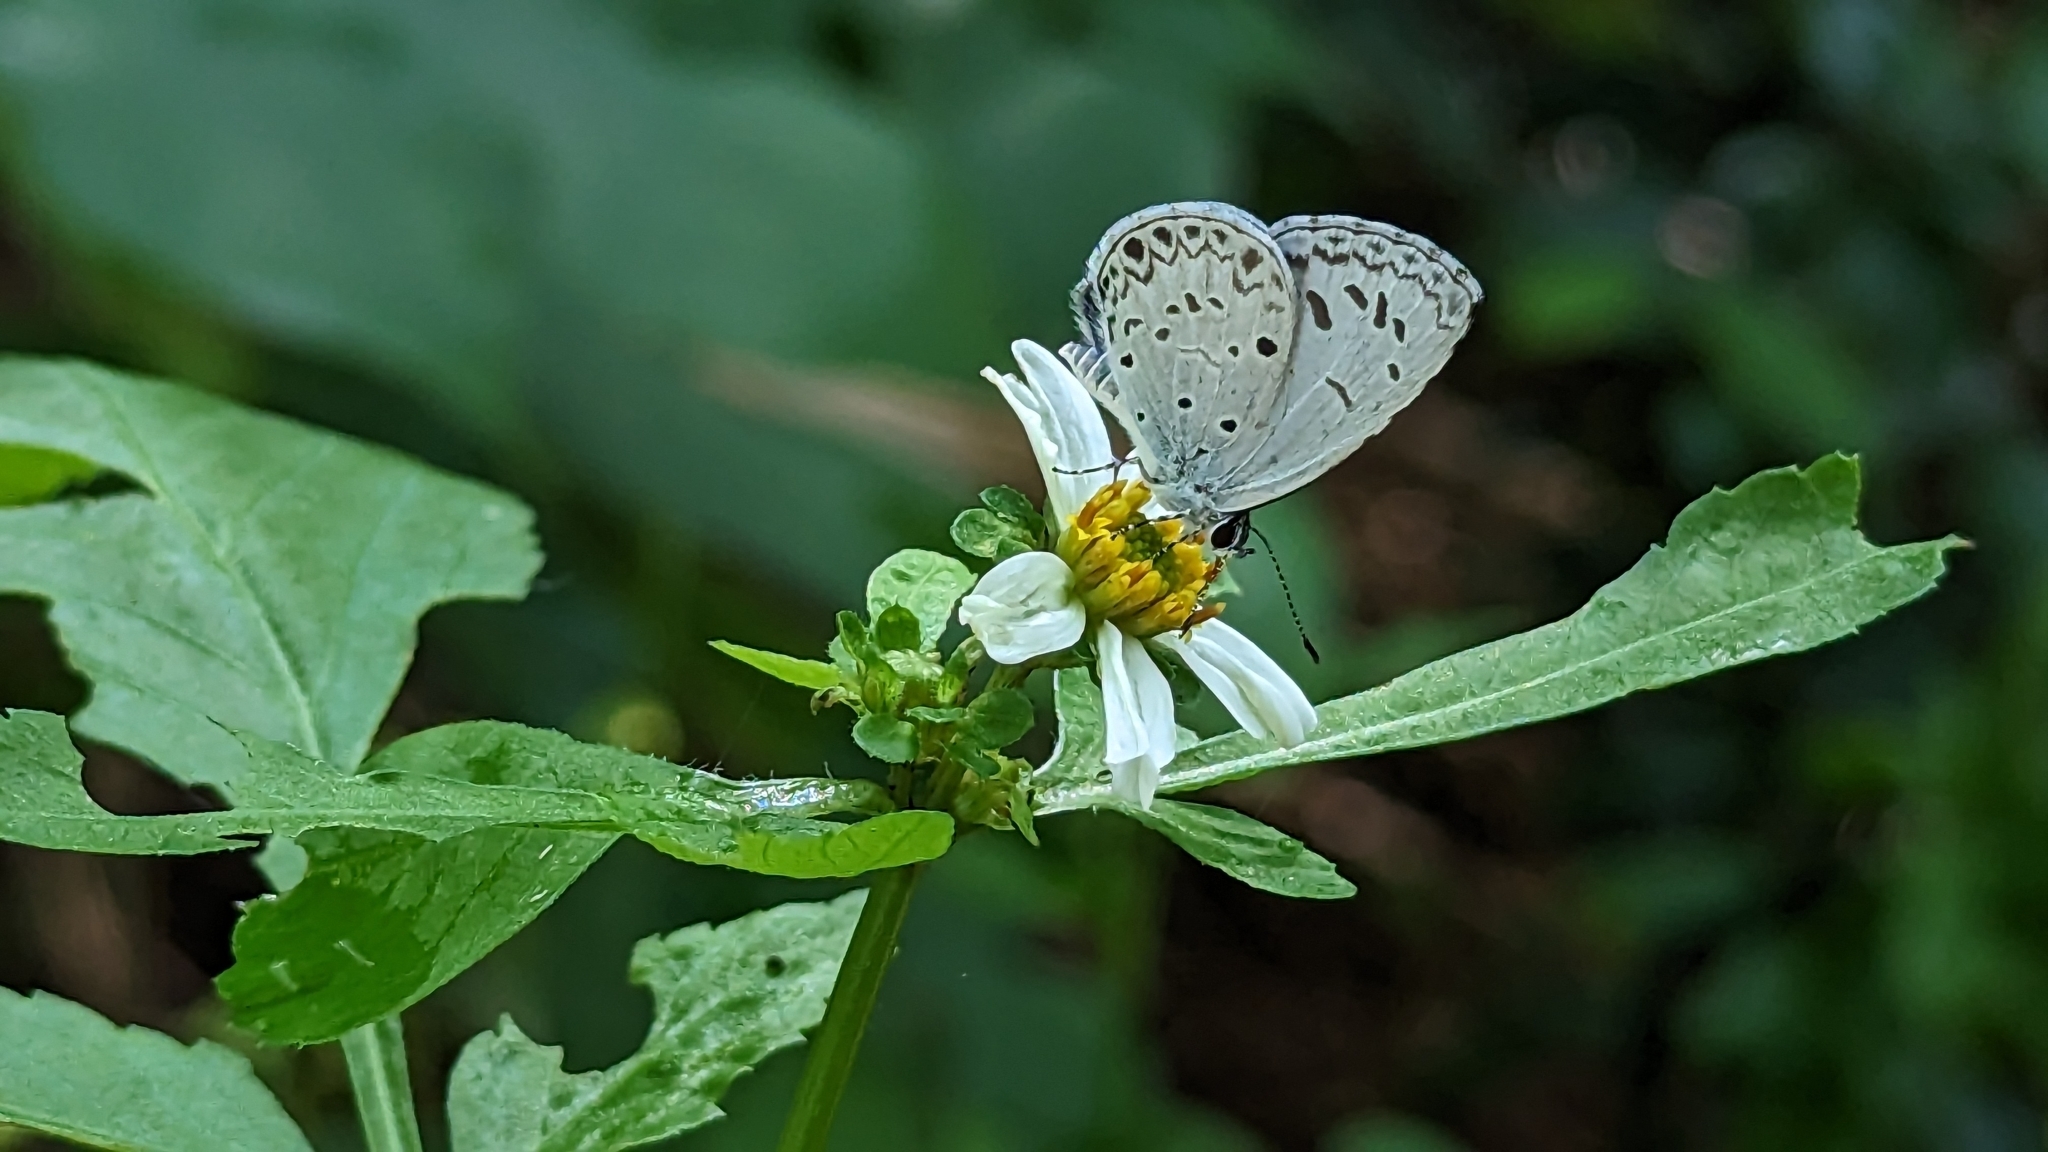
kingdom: Animalia
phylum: Arthropoda
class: Insecta
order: Lepidoptera
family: Lycaenidae
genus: Acytolepis
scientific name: Acytolepis puspa
